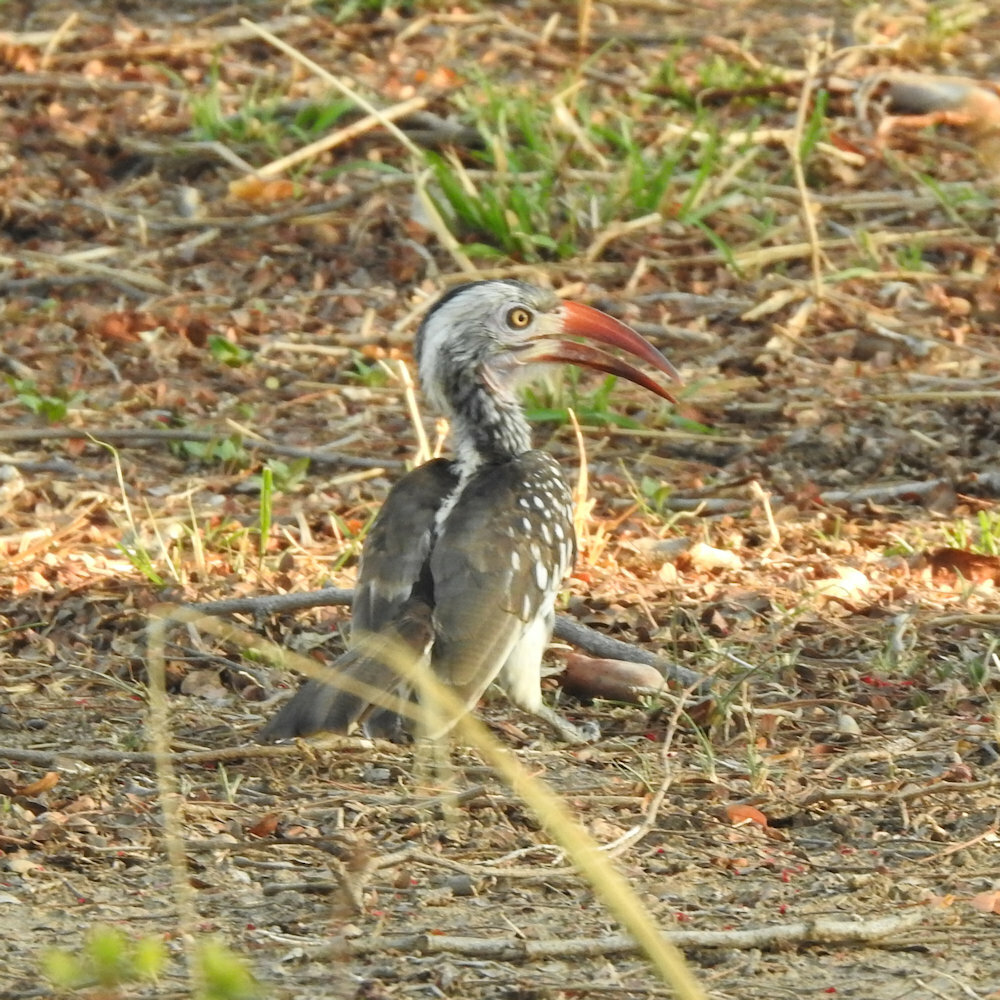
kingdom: Animalia
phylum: Chordata
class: Aves
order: Bucerotiformes
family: Bucerotidae
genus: Tockus
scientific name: Tockus rufirostris
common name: Southern red-billed hornbill
